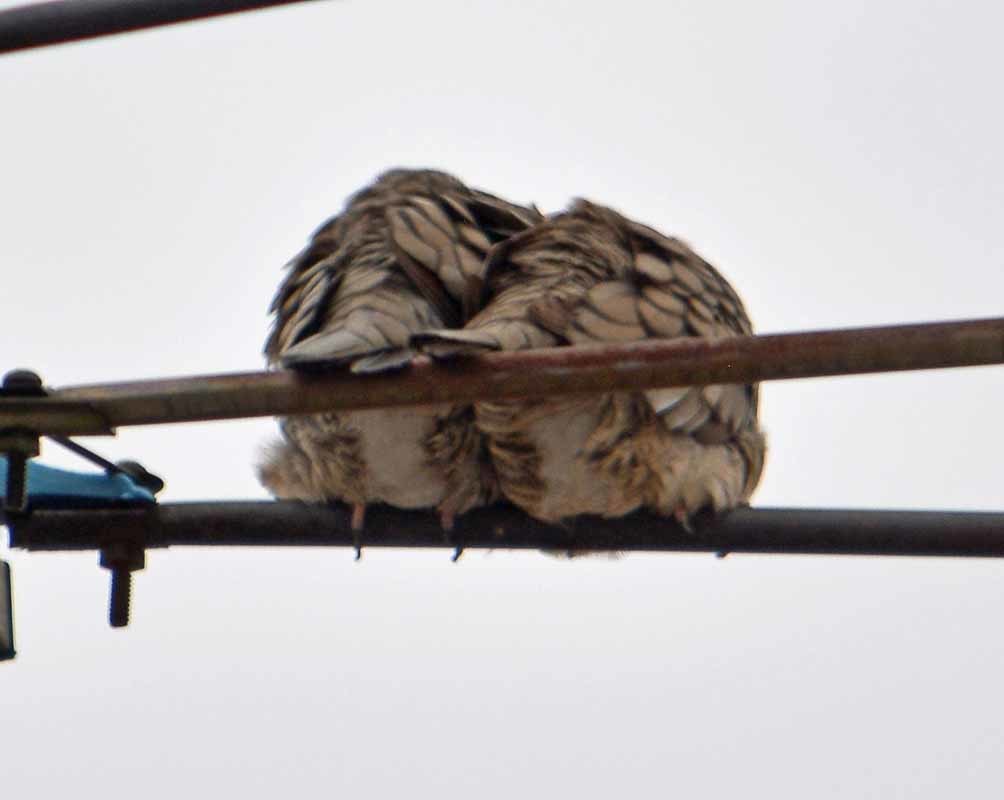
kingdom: Animalia
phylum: Chordata
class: Aves
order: Columbiformes
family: Columbidae
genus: Columbina
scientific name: Columbina inca
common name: Inca dove
